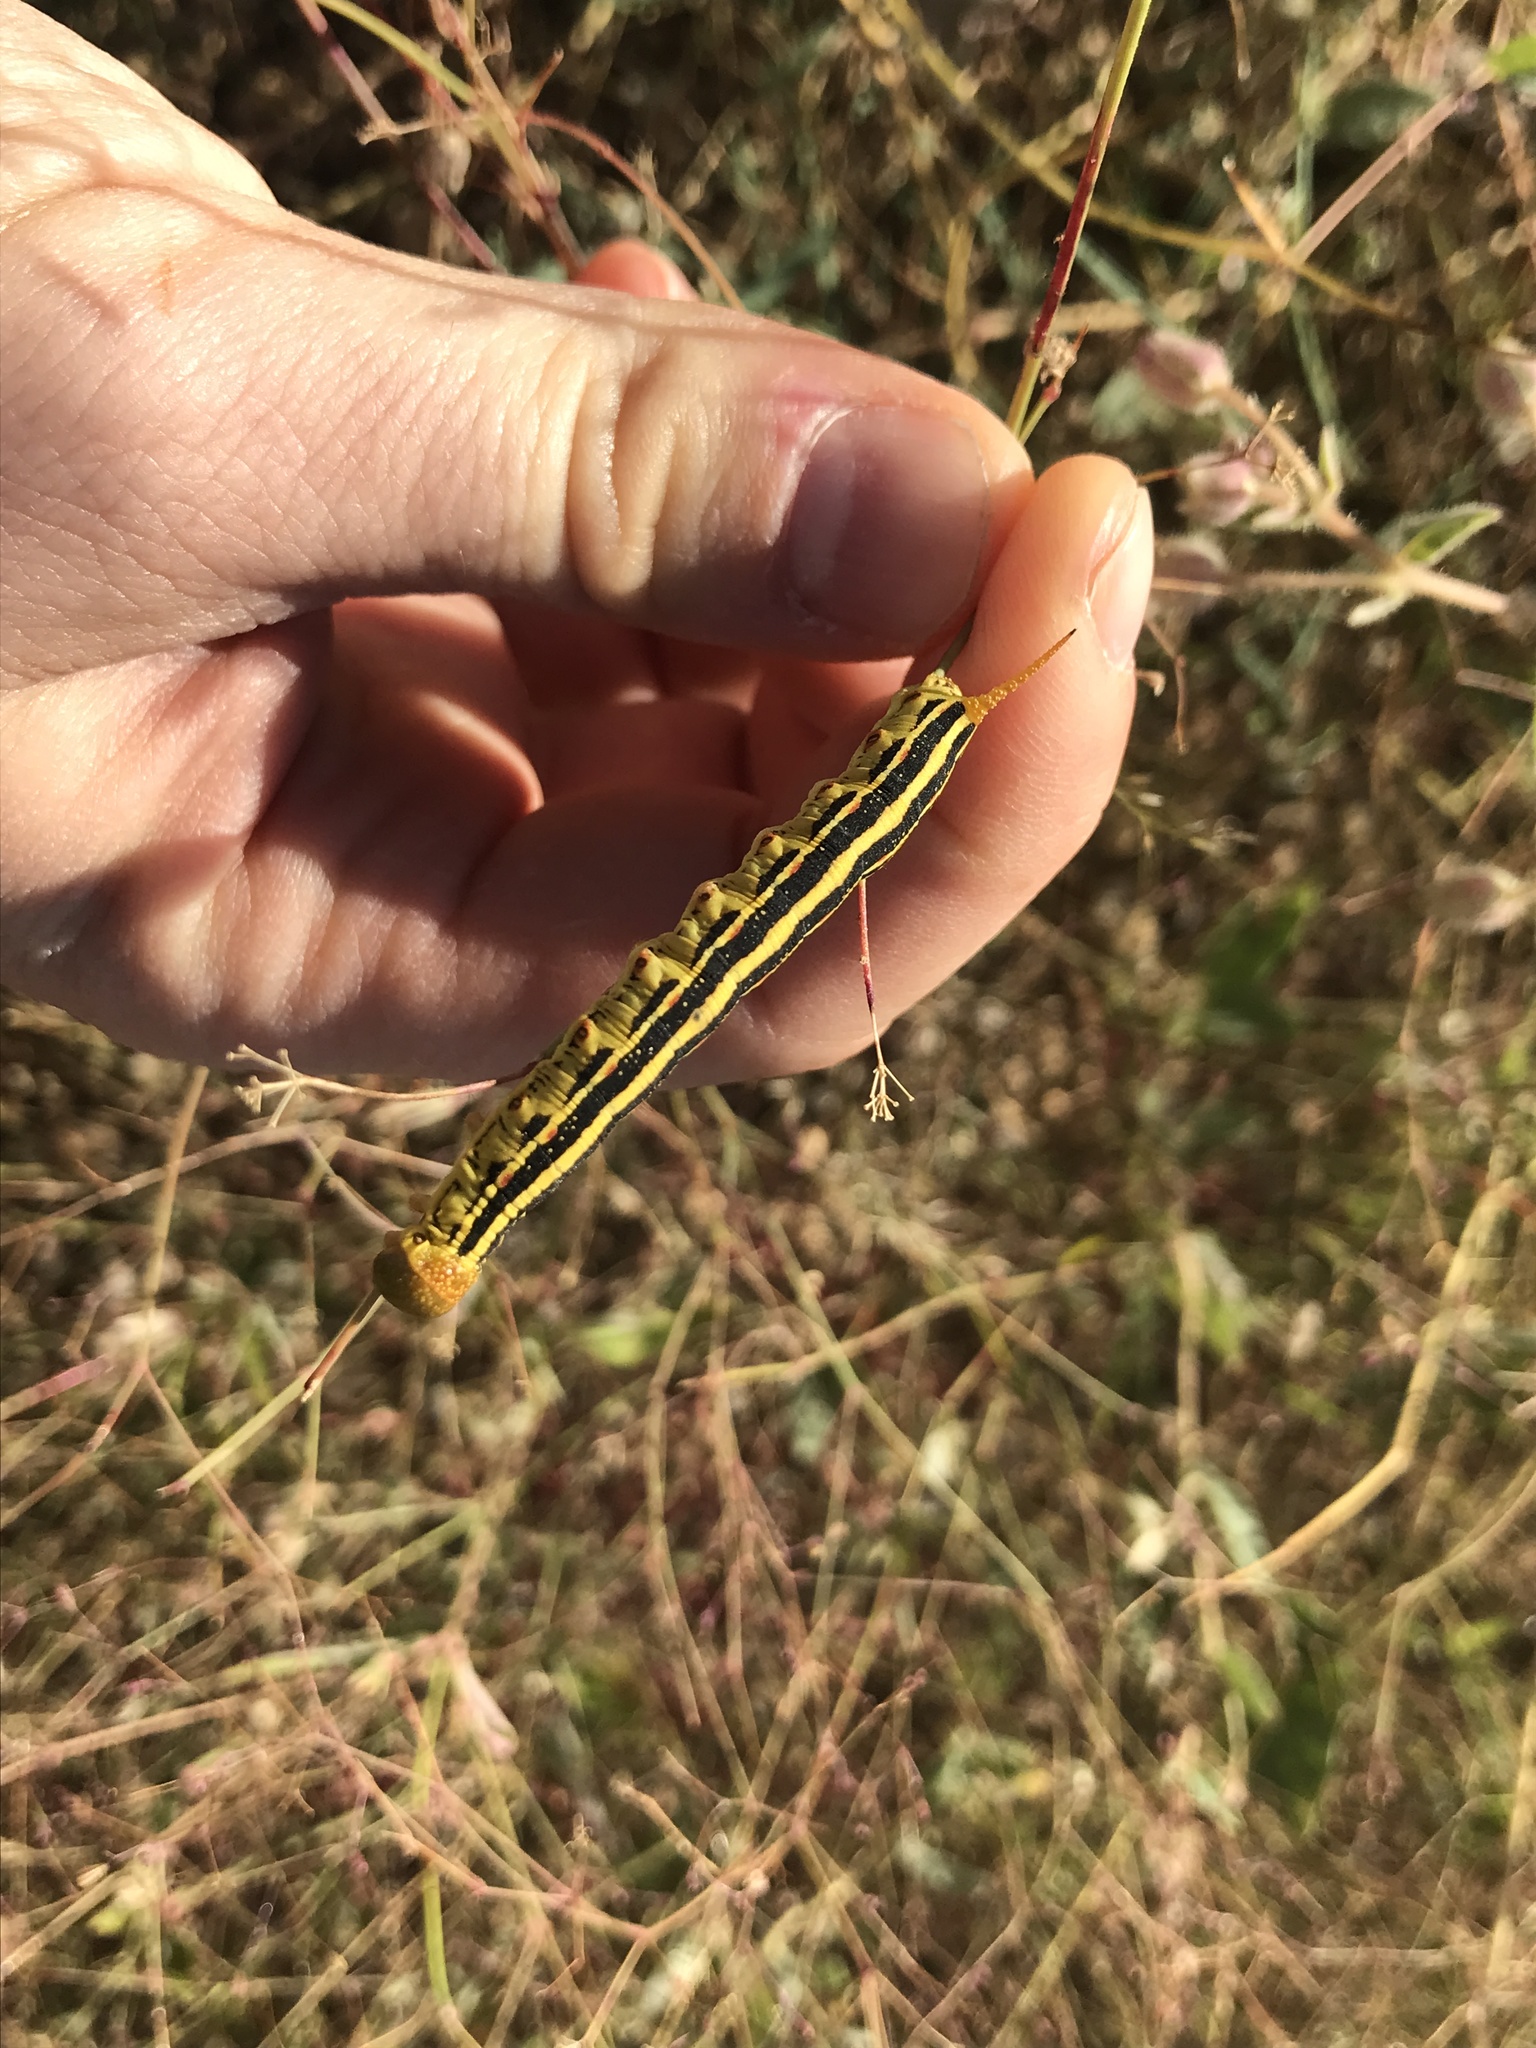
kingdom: Animalia
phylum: Arthropoda
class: Insecta
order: Lepidoptera
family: Sphingidae
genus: Hyles
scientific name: Hyles lineata
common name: White-lined sphinx
